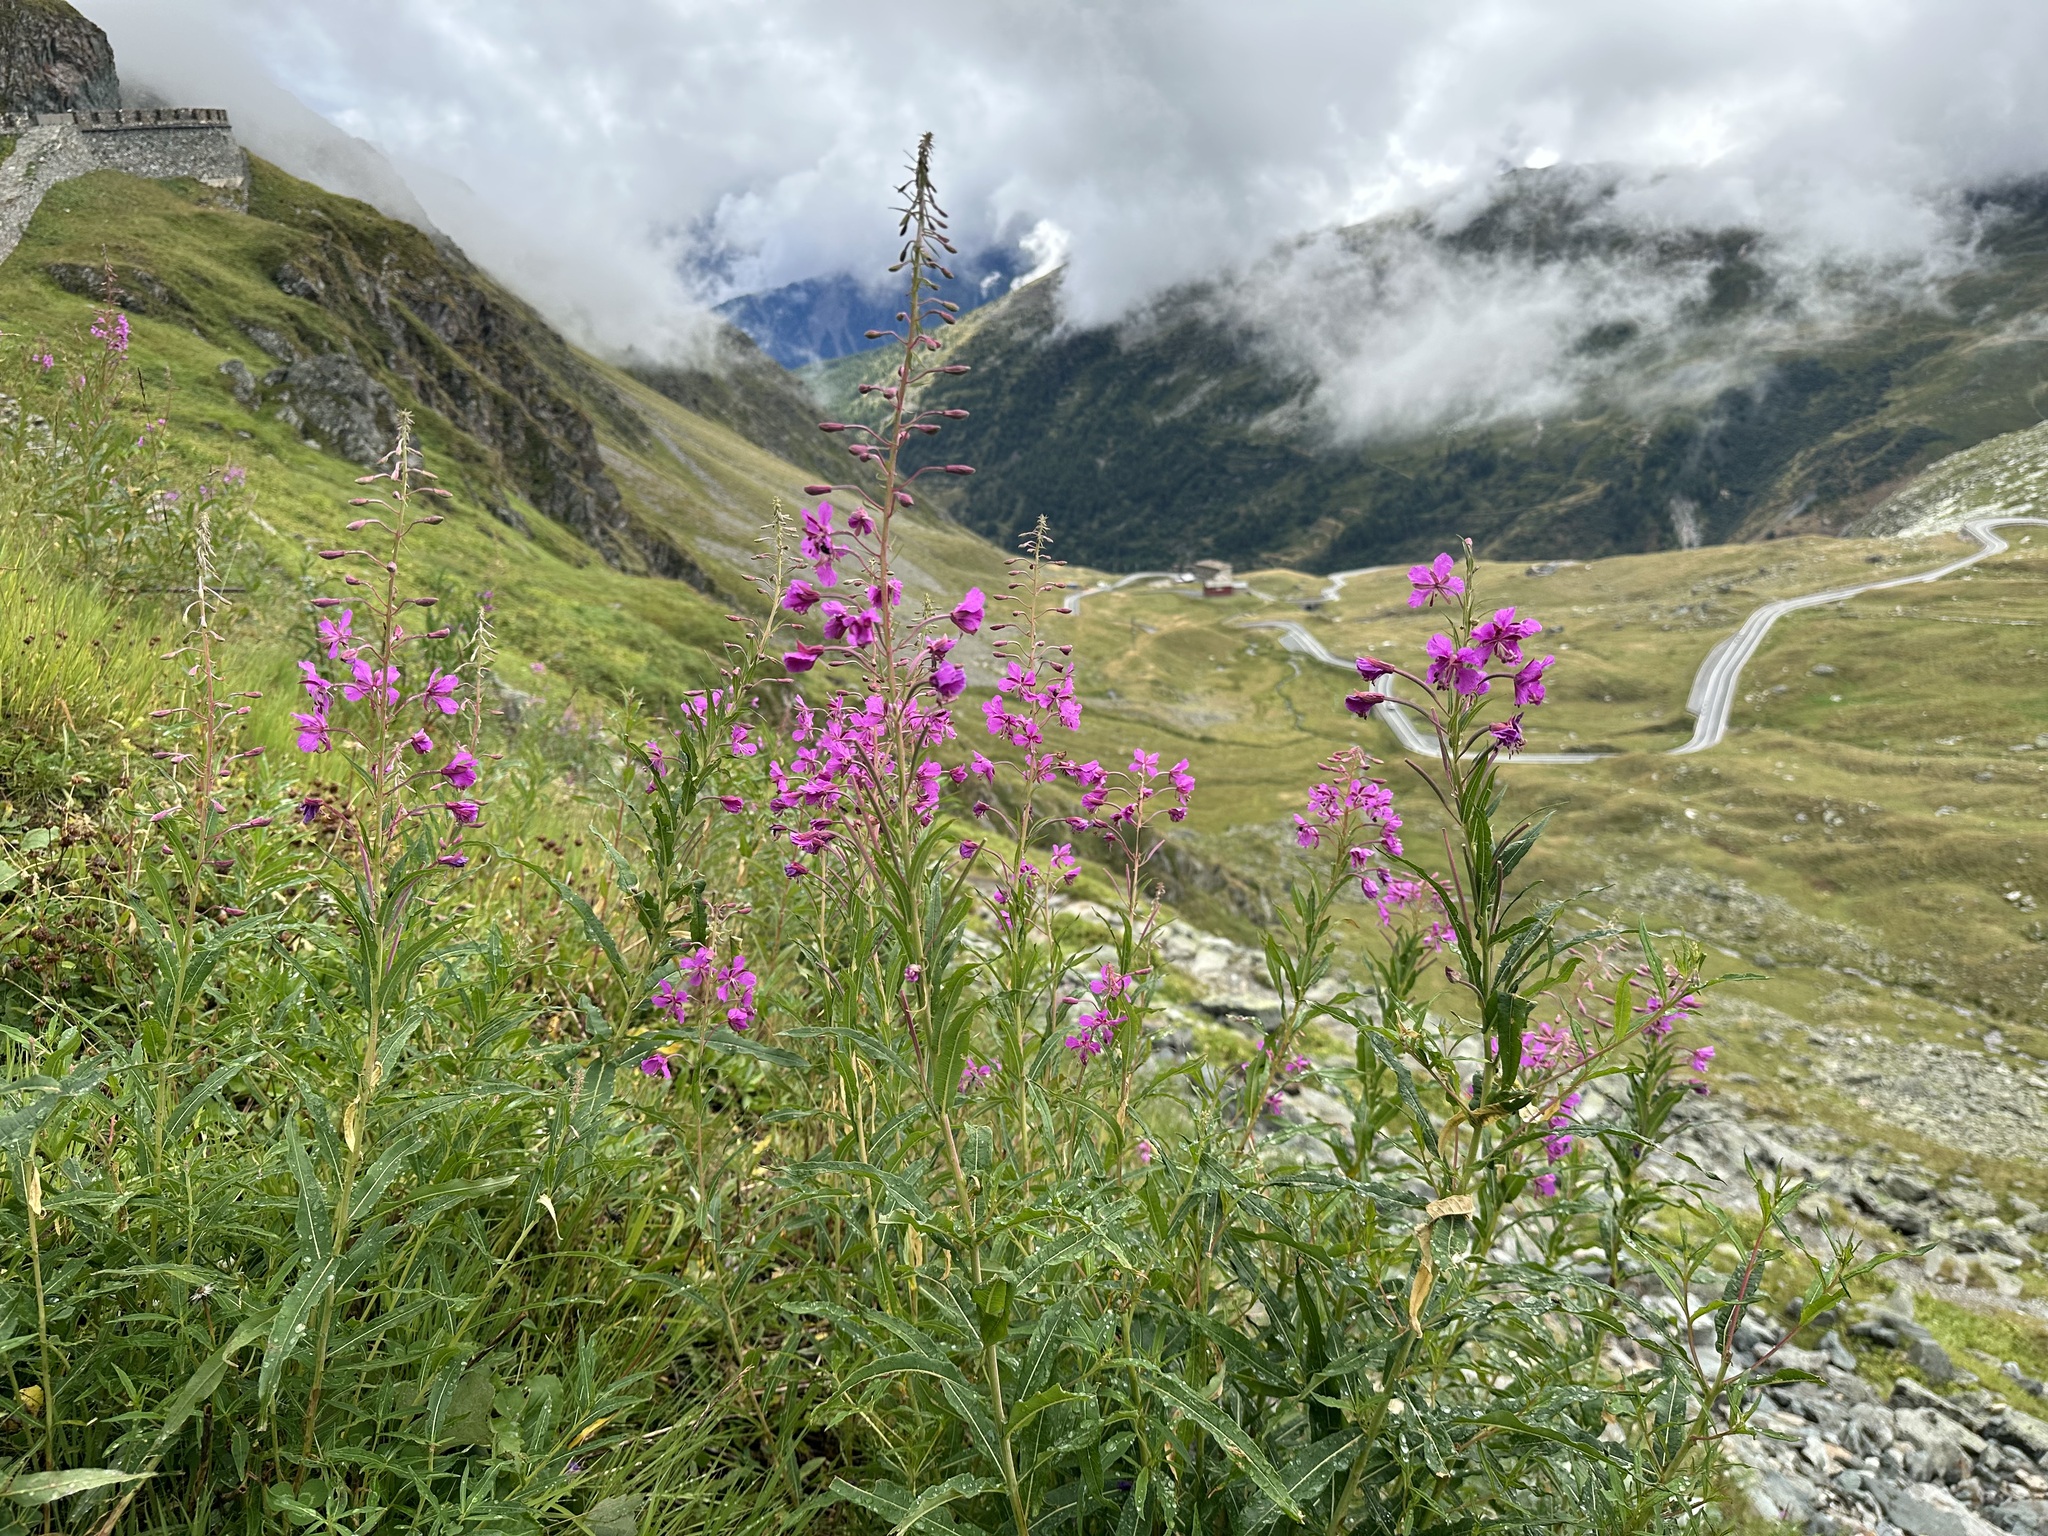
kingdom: Plantae
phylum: Tracheophyta
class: Magnoliopsida
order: Myrtales
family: Onagraceae
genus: Chamaenerion
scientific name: Chamaenerion angustifolium
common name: Fireweed
